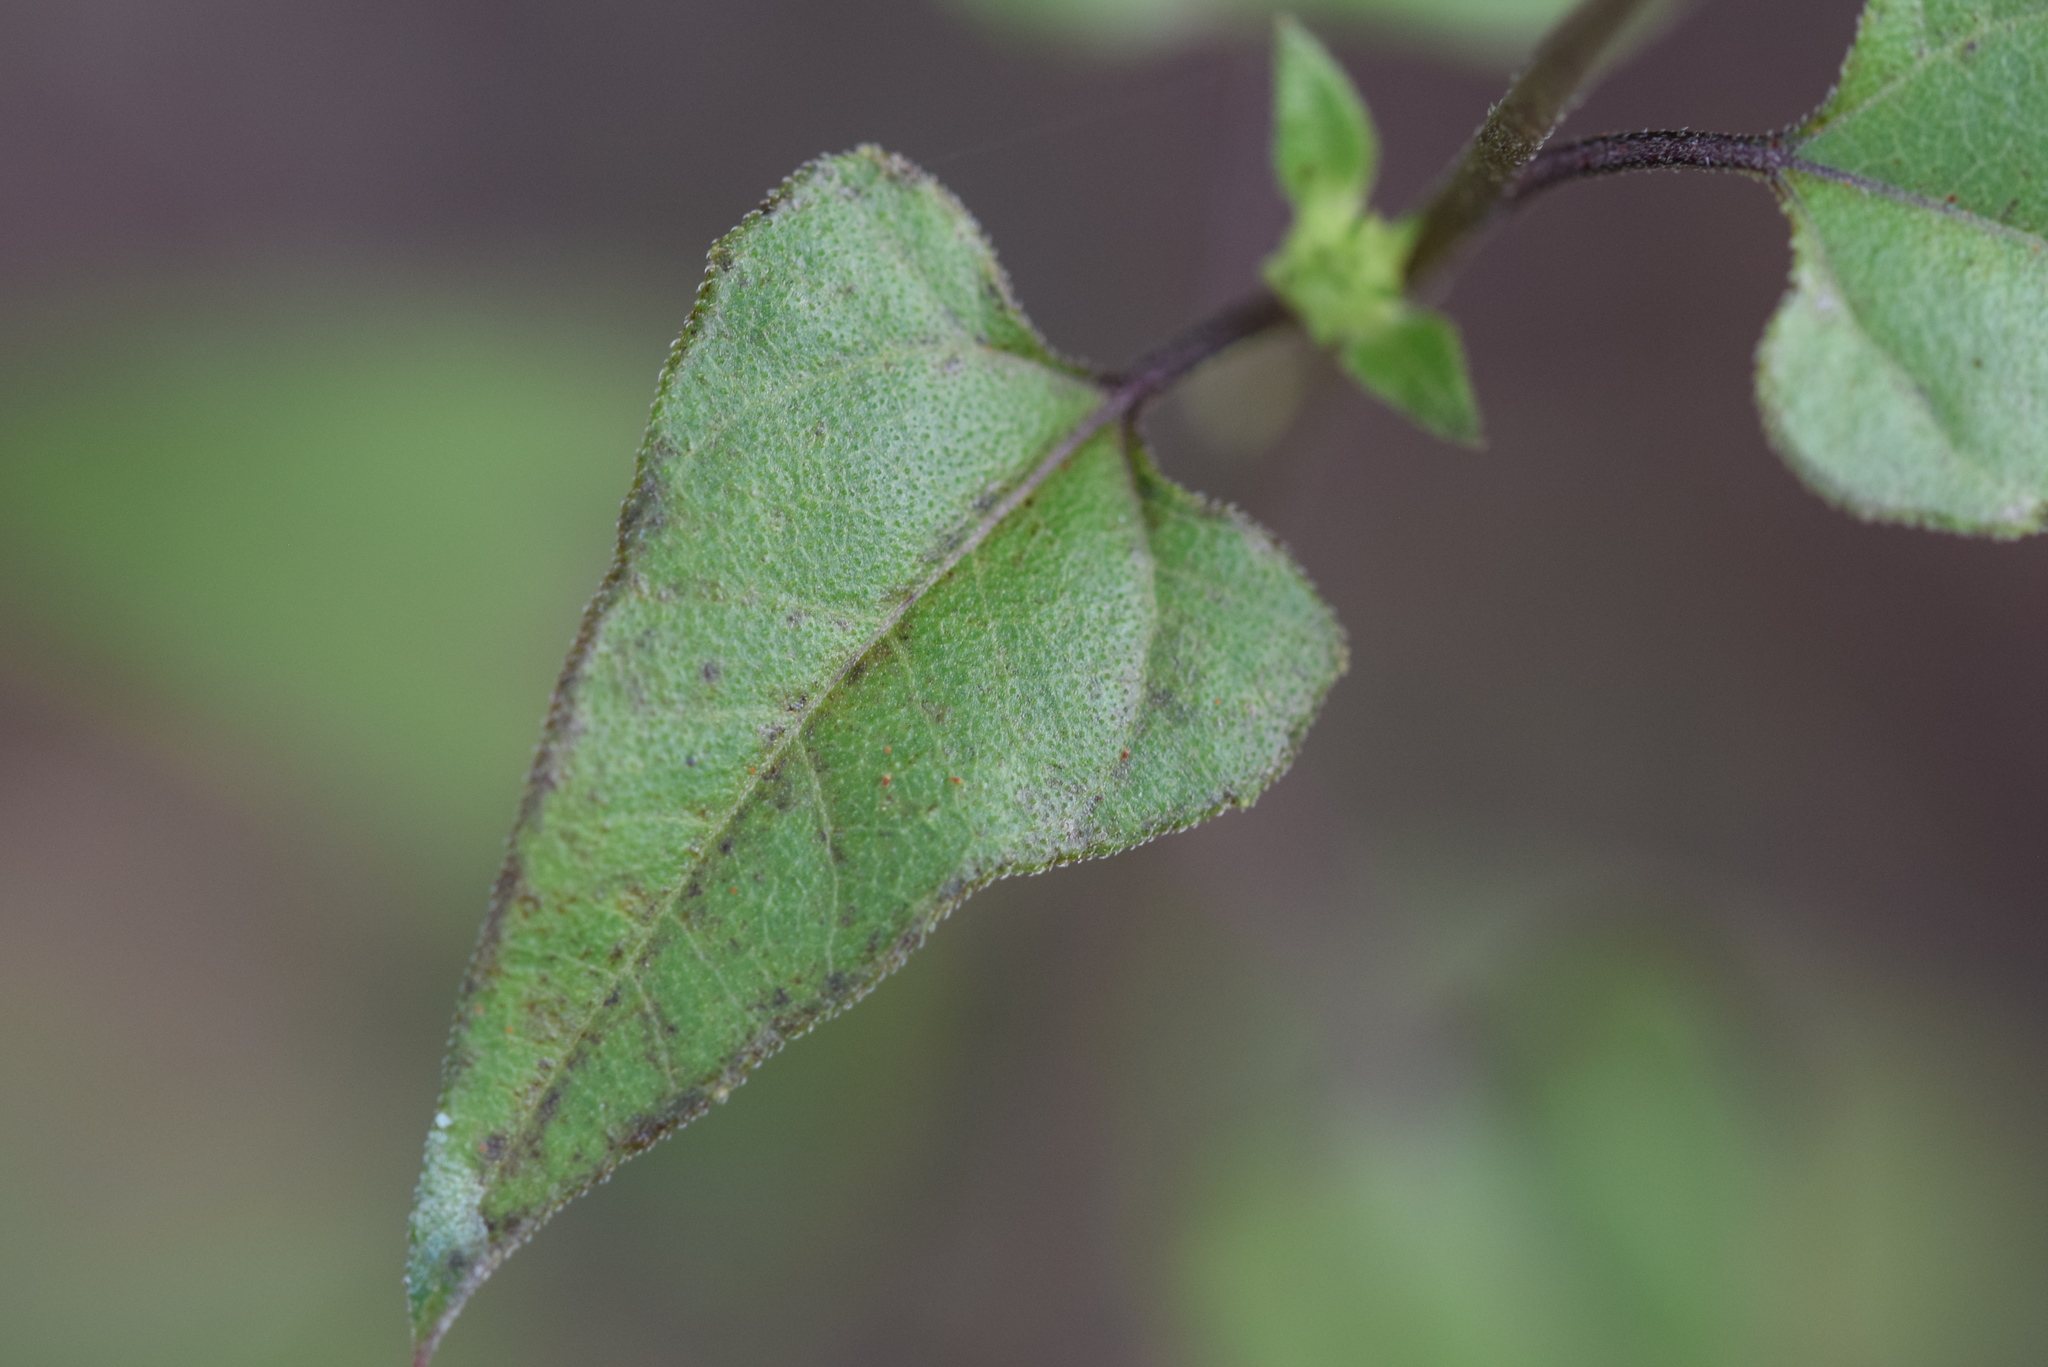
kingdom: Plantae
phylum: Tracheophyta
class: Magnoliopsida
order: Asterales
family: Asteraceae
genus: Helianthus
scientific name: Helianthus debilis
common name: Weak sunflower
